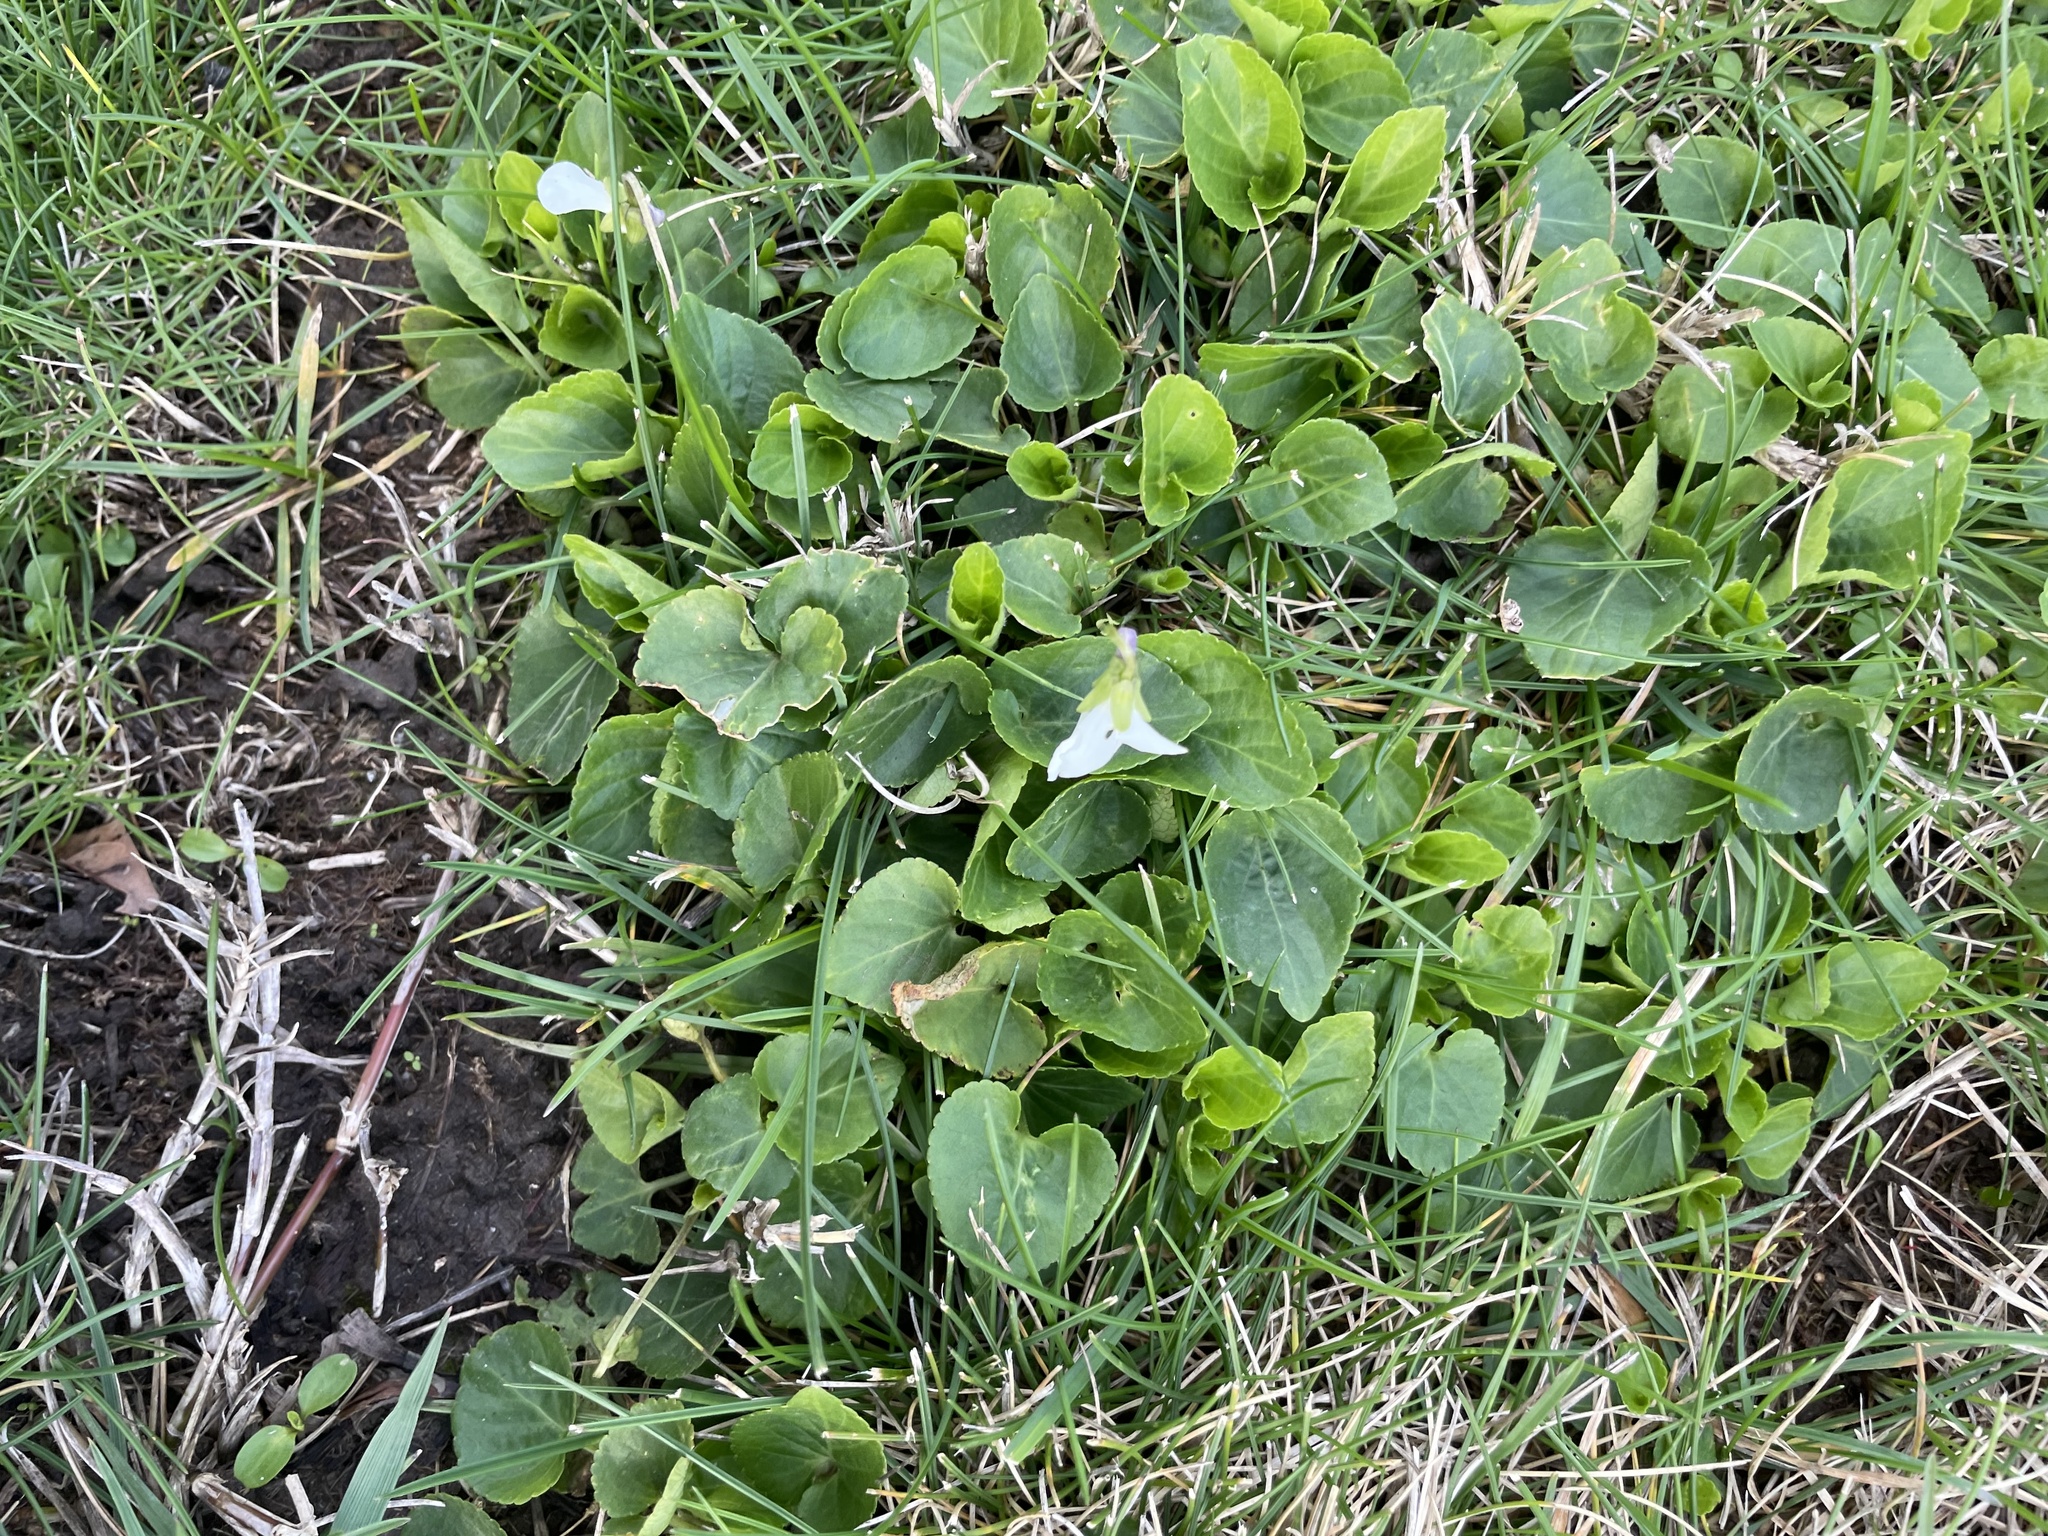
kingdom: Plantae
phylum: Tracheophyta
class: Magnoliopsida
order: Malpighiales
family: Violaceae
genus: Viola
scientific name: Viola odorata
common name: Sweet violet
